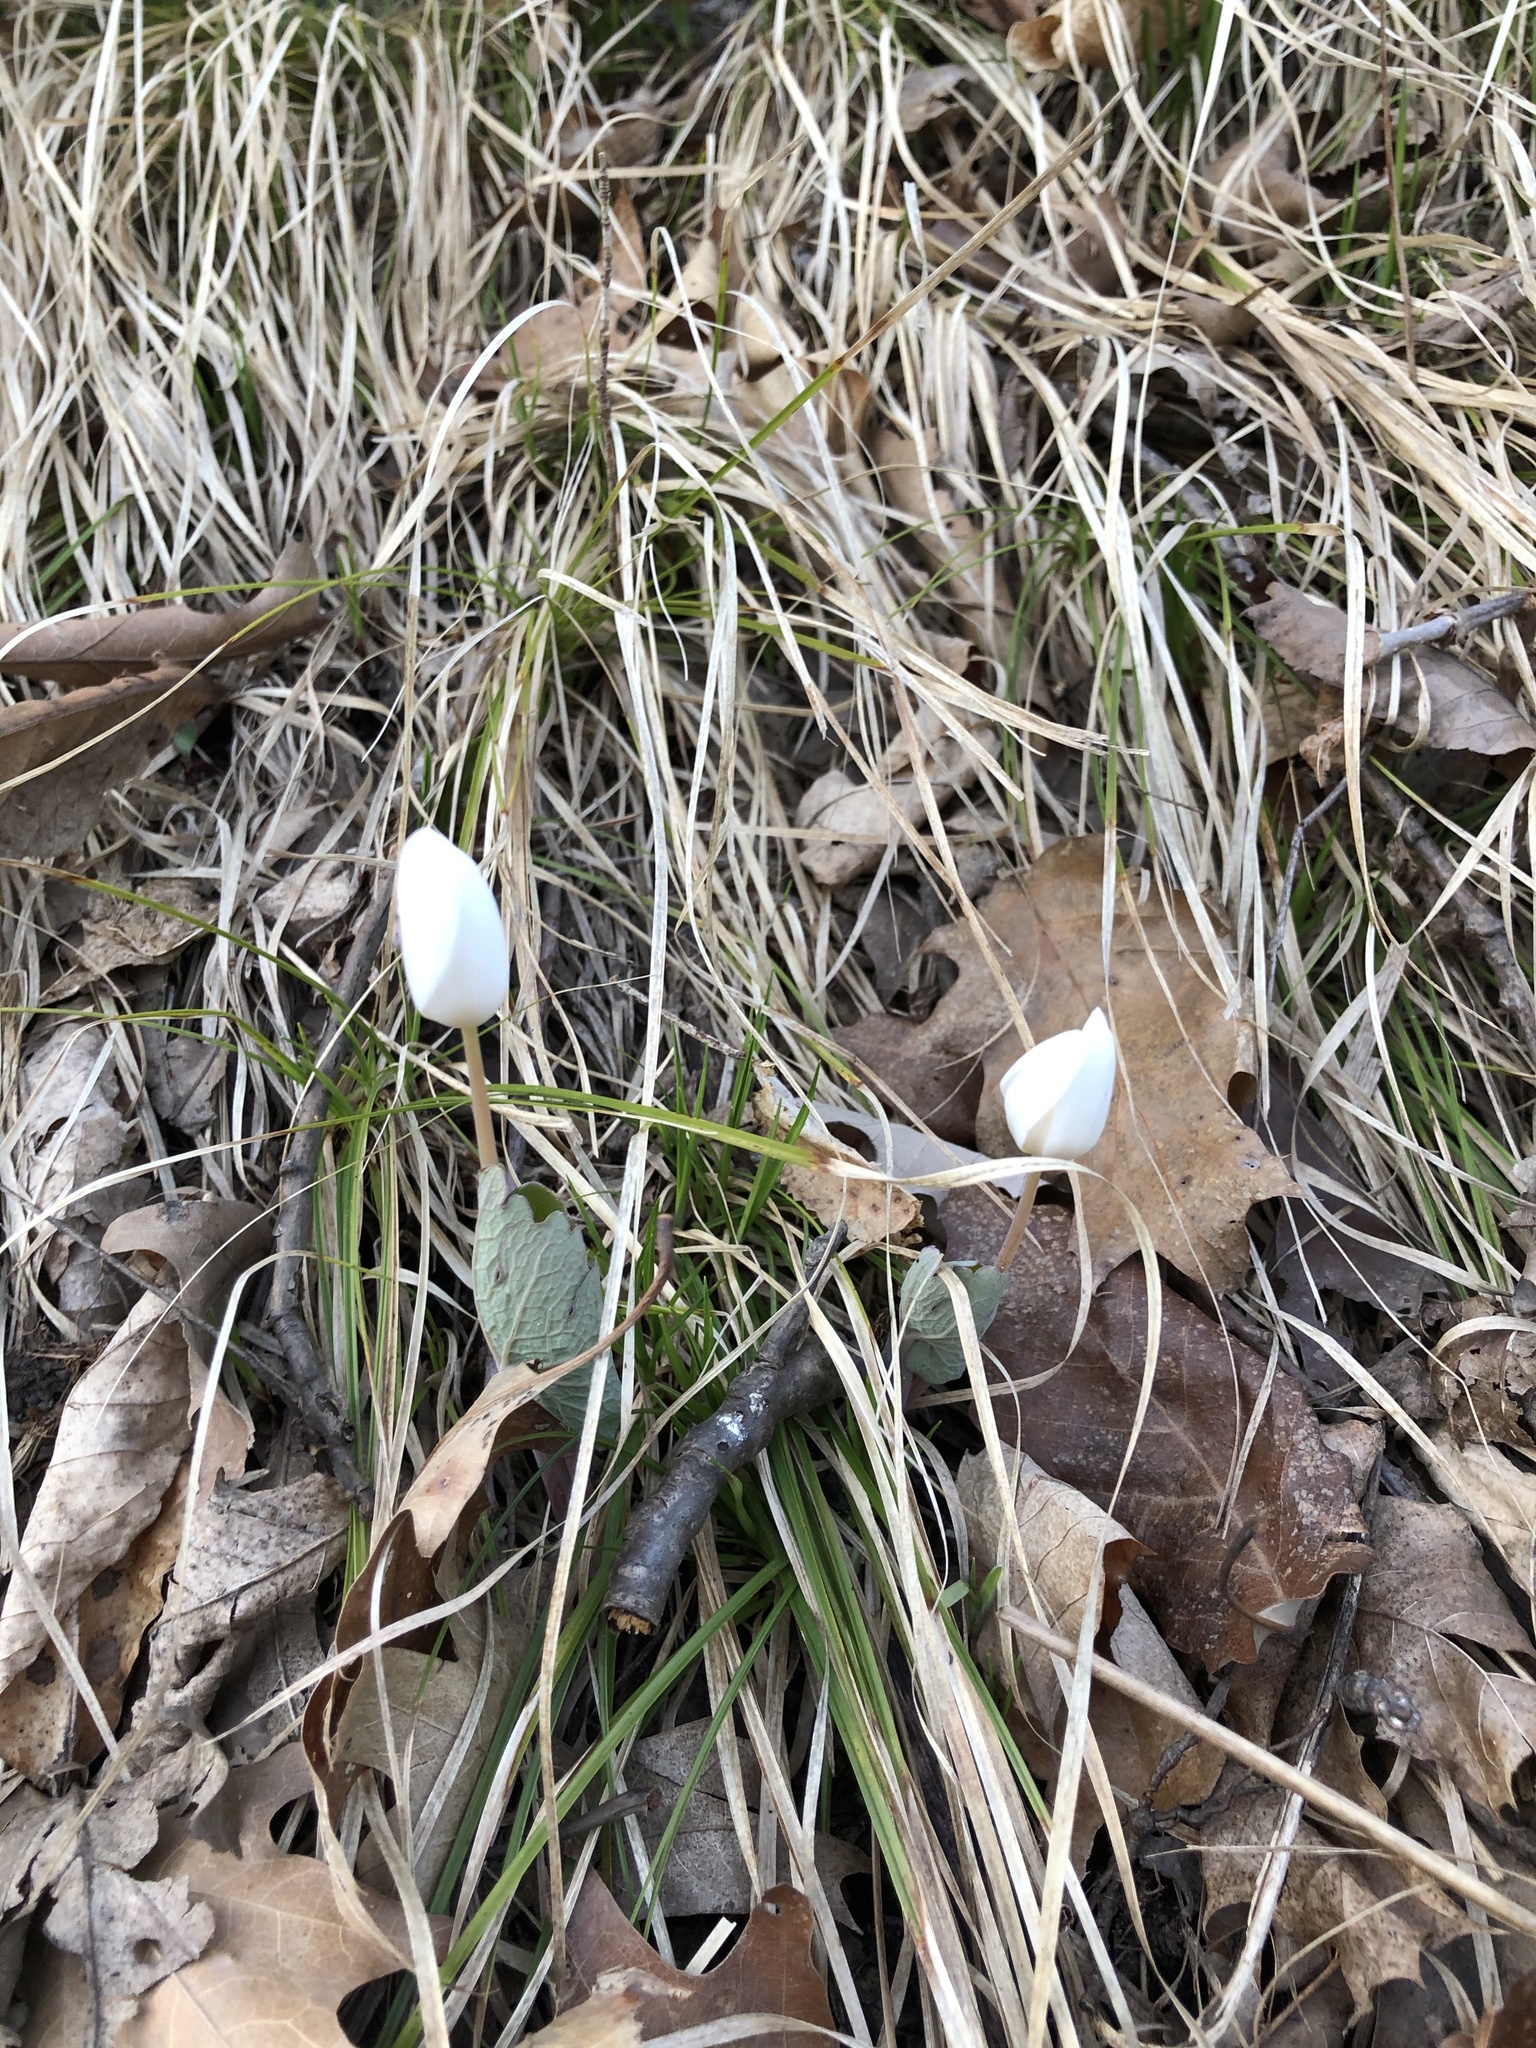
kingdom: Plantae
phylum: Tracheophyta
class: Magnoliopsida
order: Ranunculales
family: Papaveraceae
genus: Sanguinaria
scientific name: Sanguinaria canadensis
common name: Bloodroot
